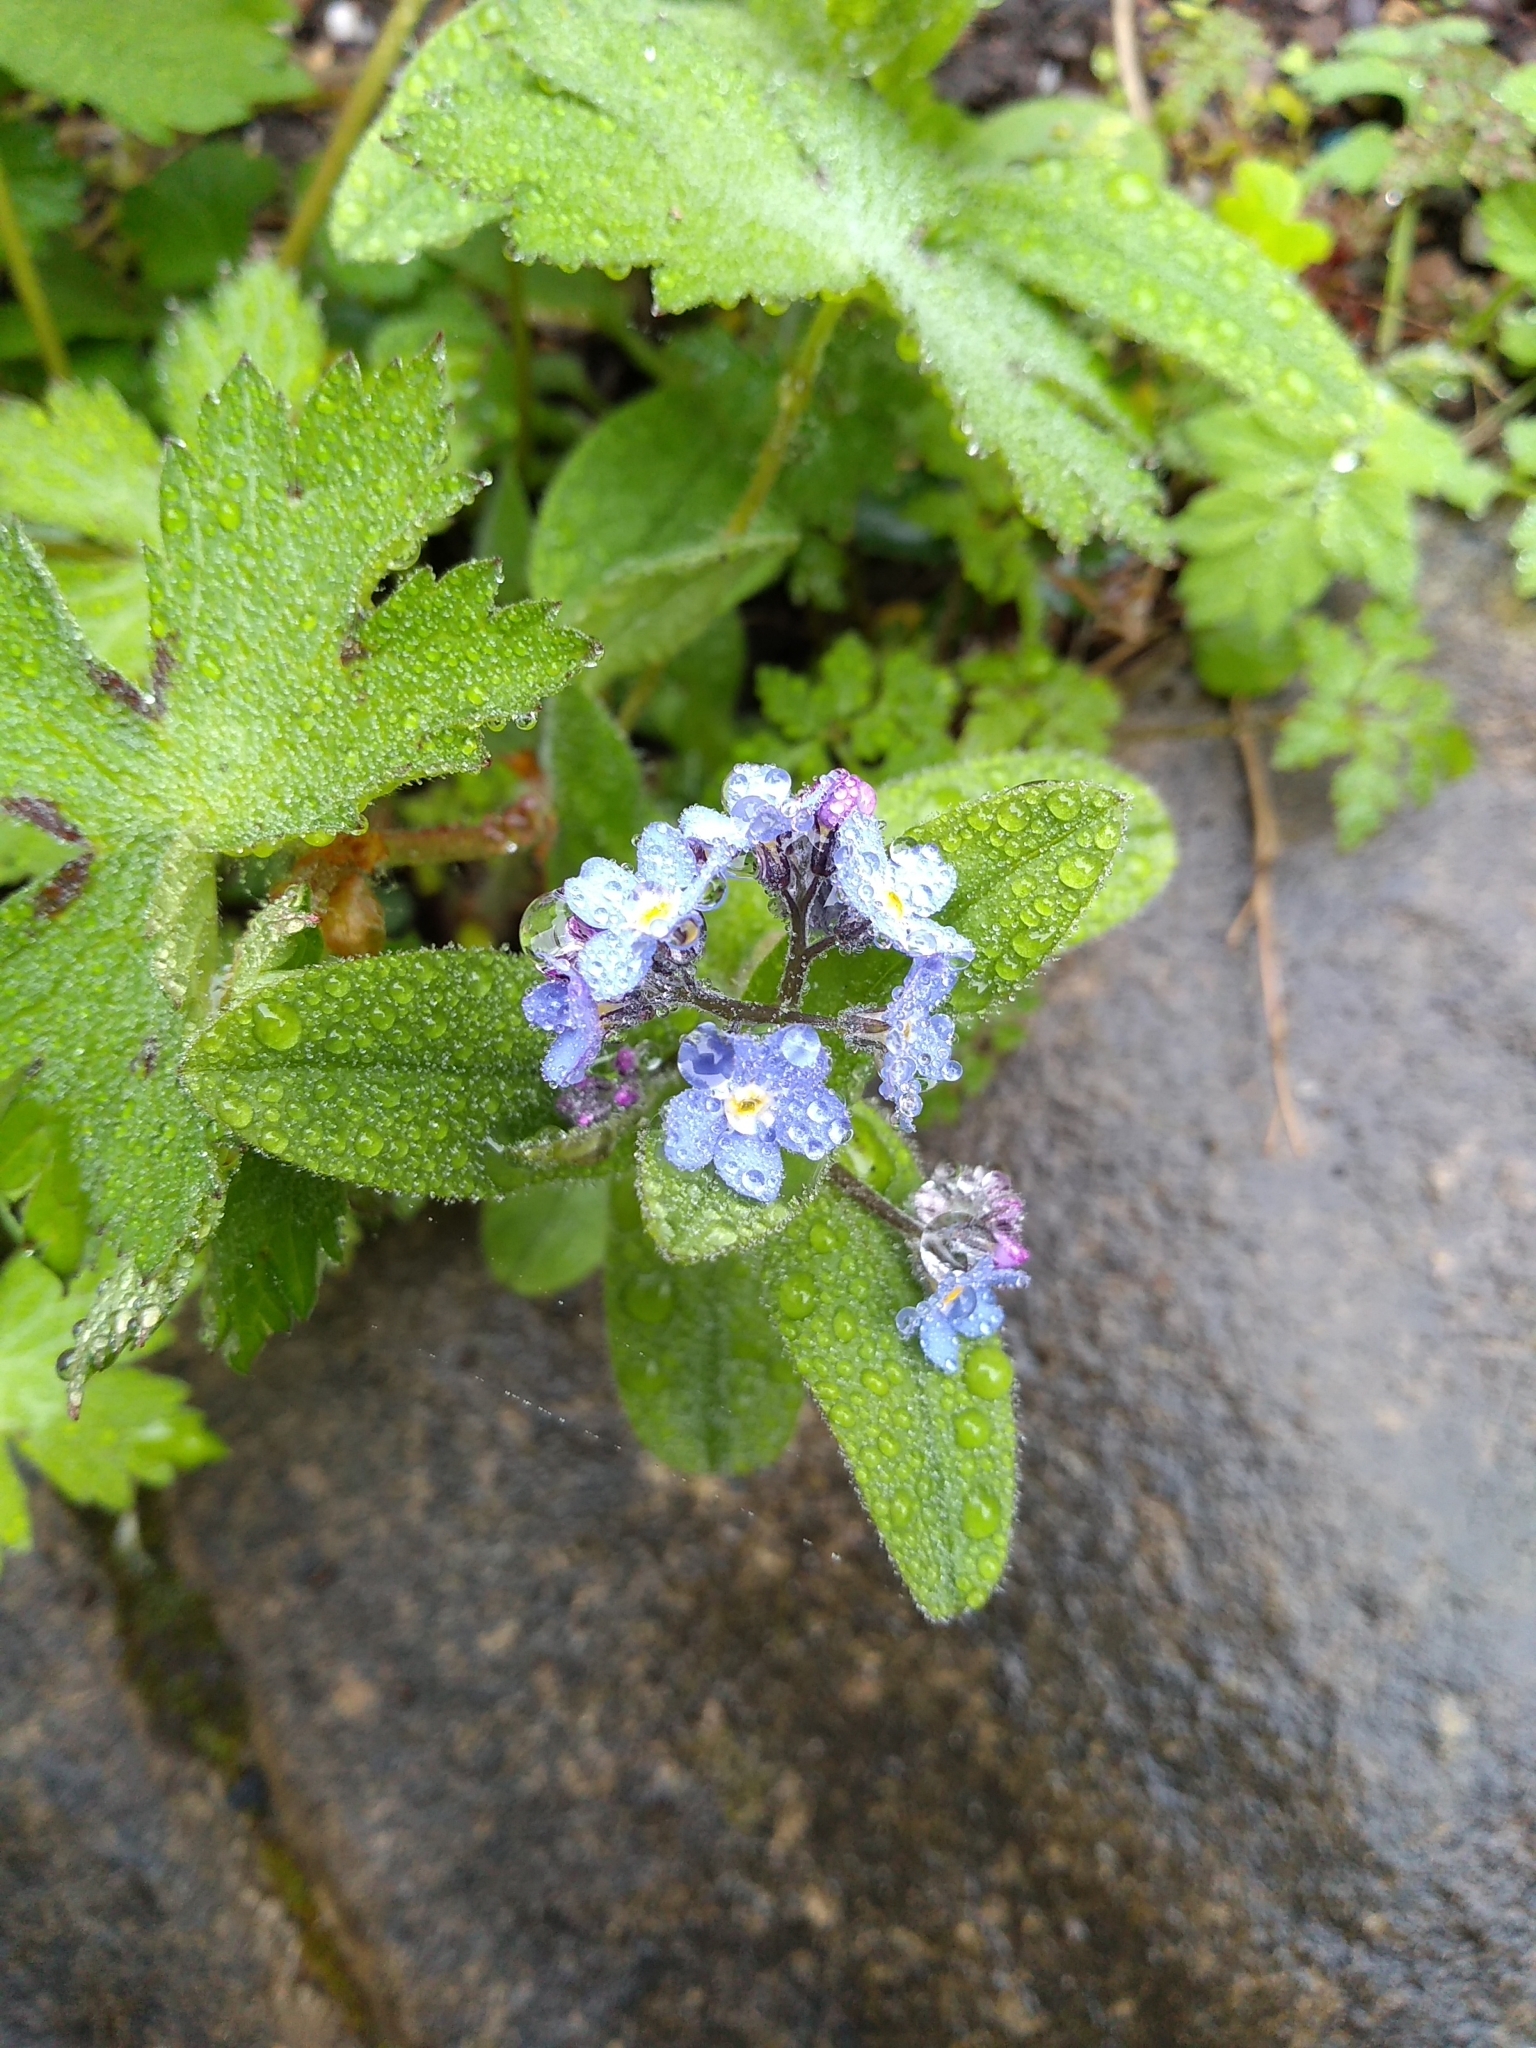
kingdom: Plantae
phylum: Tracheophyta
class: Magnoliopsida
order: Boraginales
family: Boraginaceae
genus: Myosotis
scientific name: Myosotis sylvatica
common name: Wood forget-me-not
